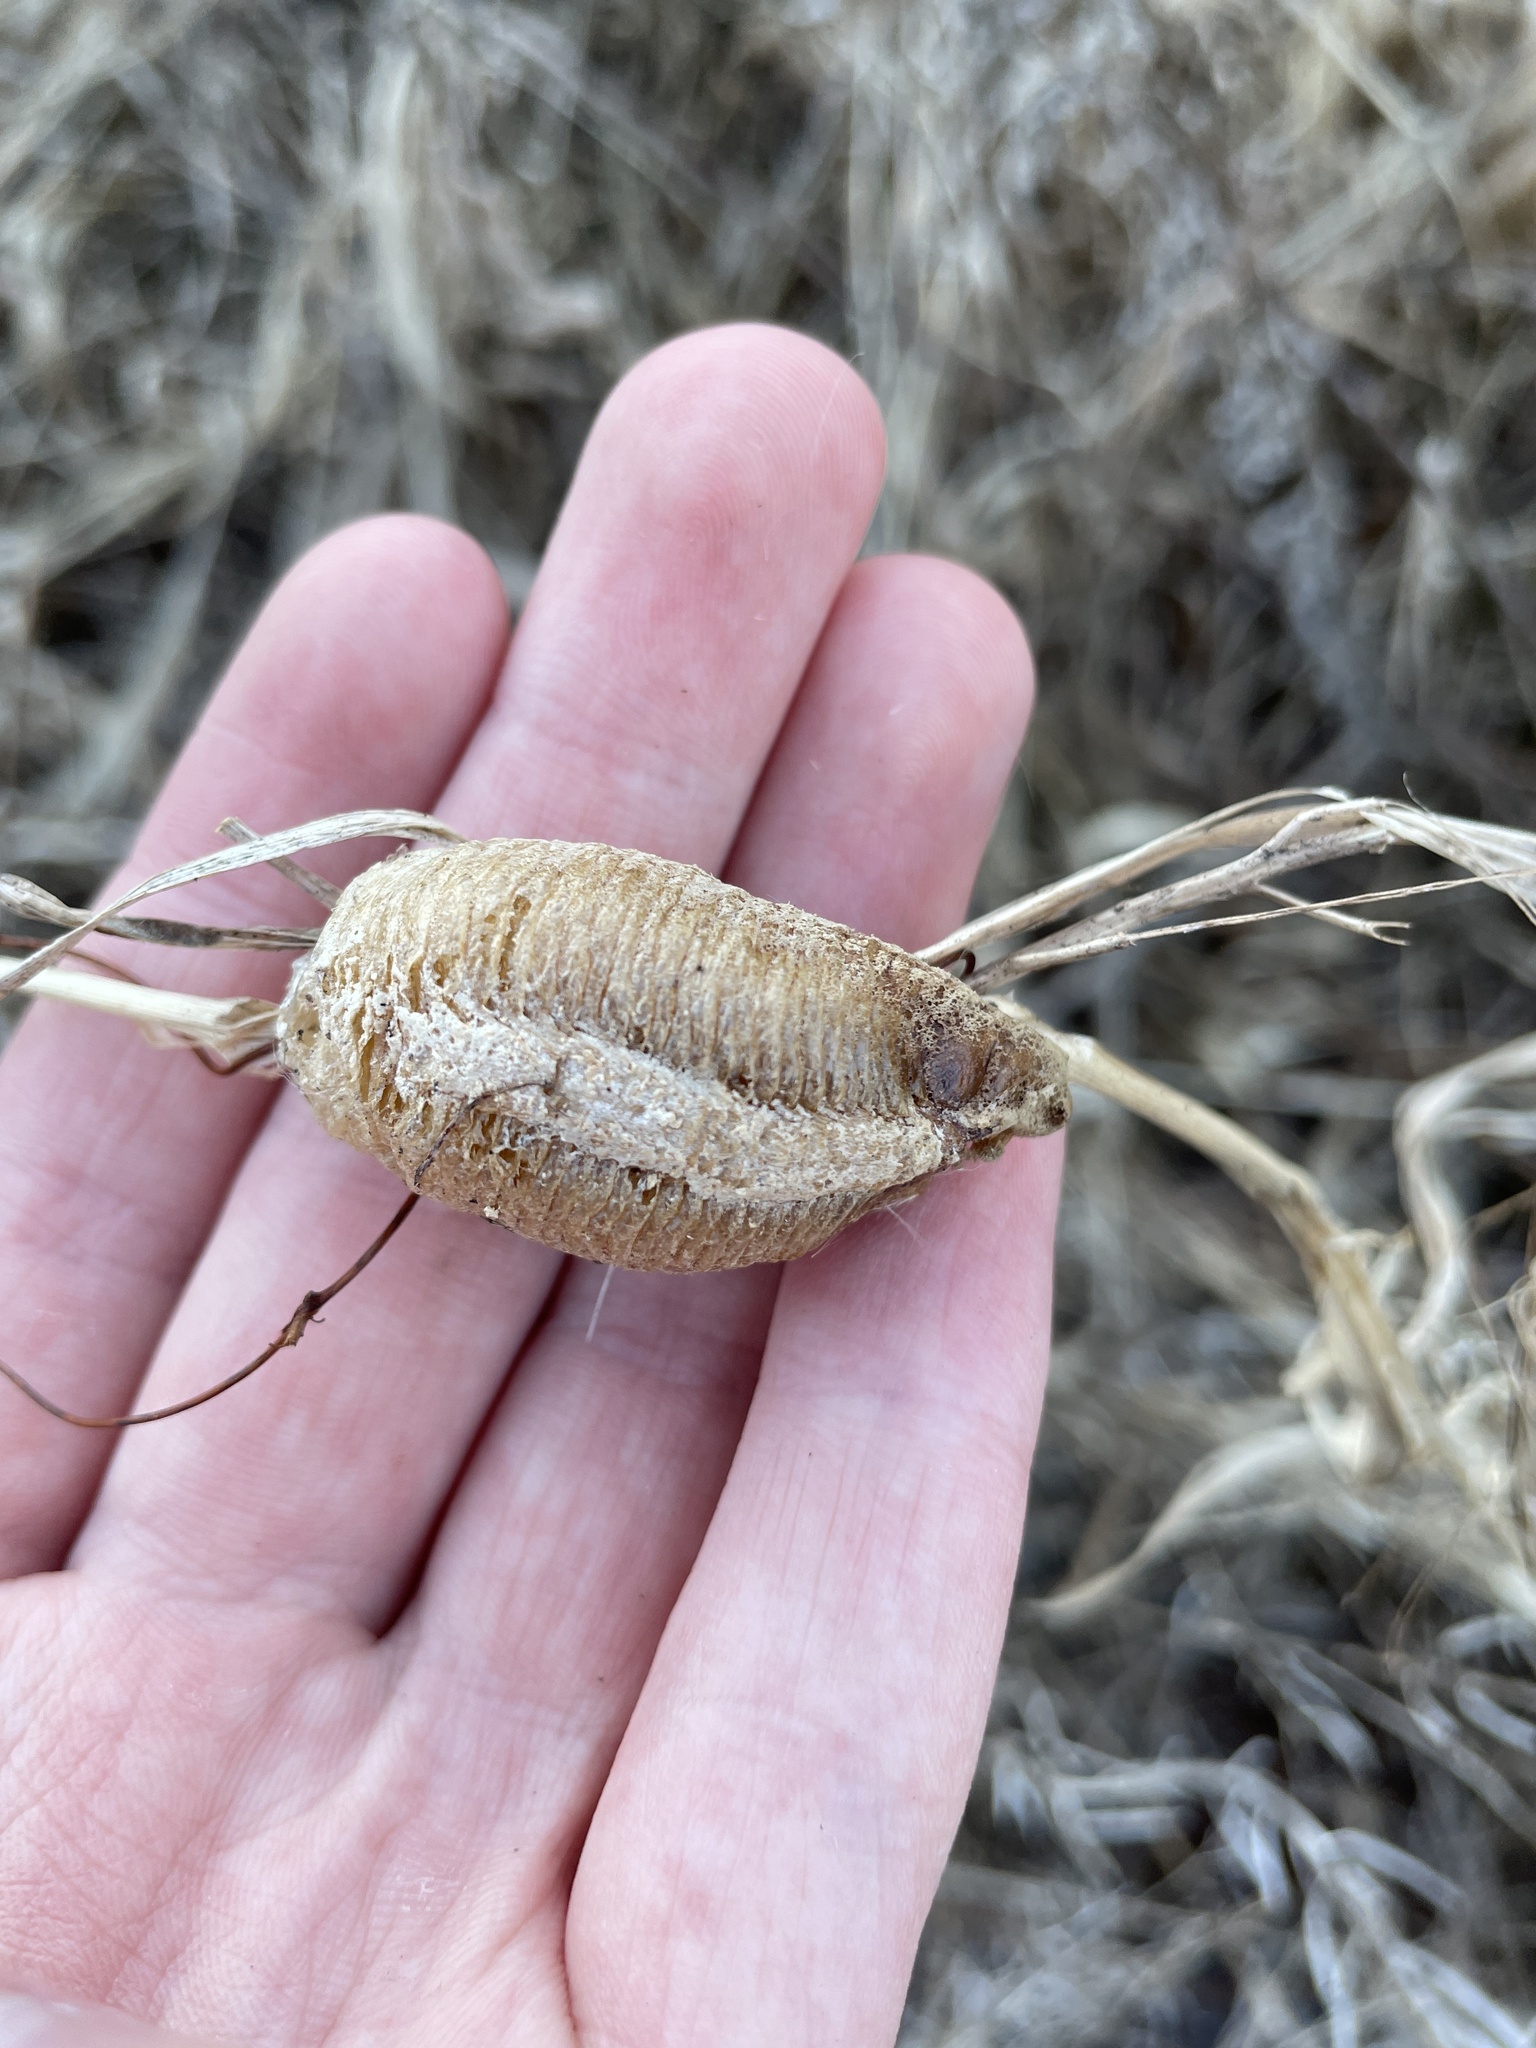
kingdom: Animalia
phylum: Arthropoda
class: Insecta
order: Mantodea
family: Mantidae
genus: Mantis
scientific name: Mantis religiosa
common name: Praying mantis
